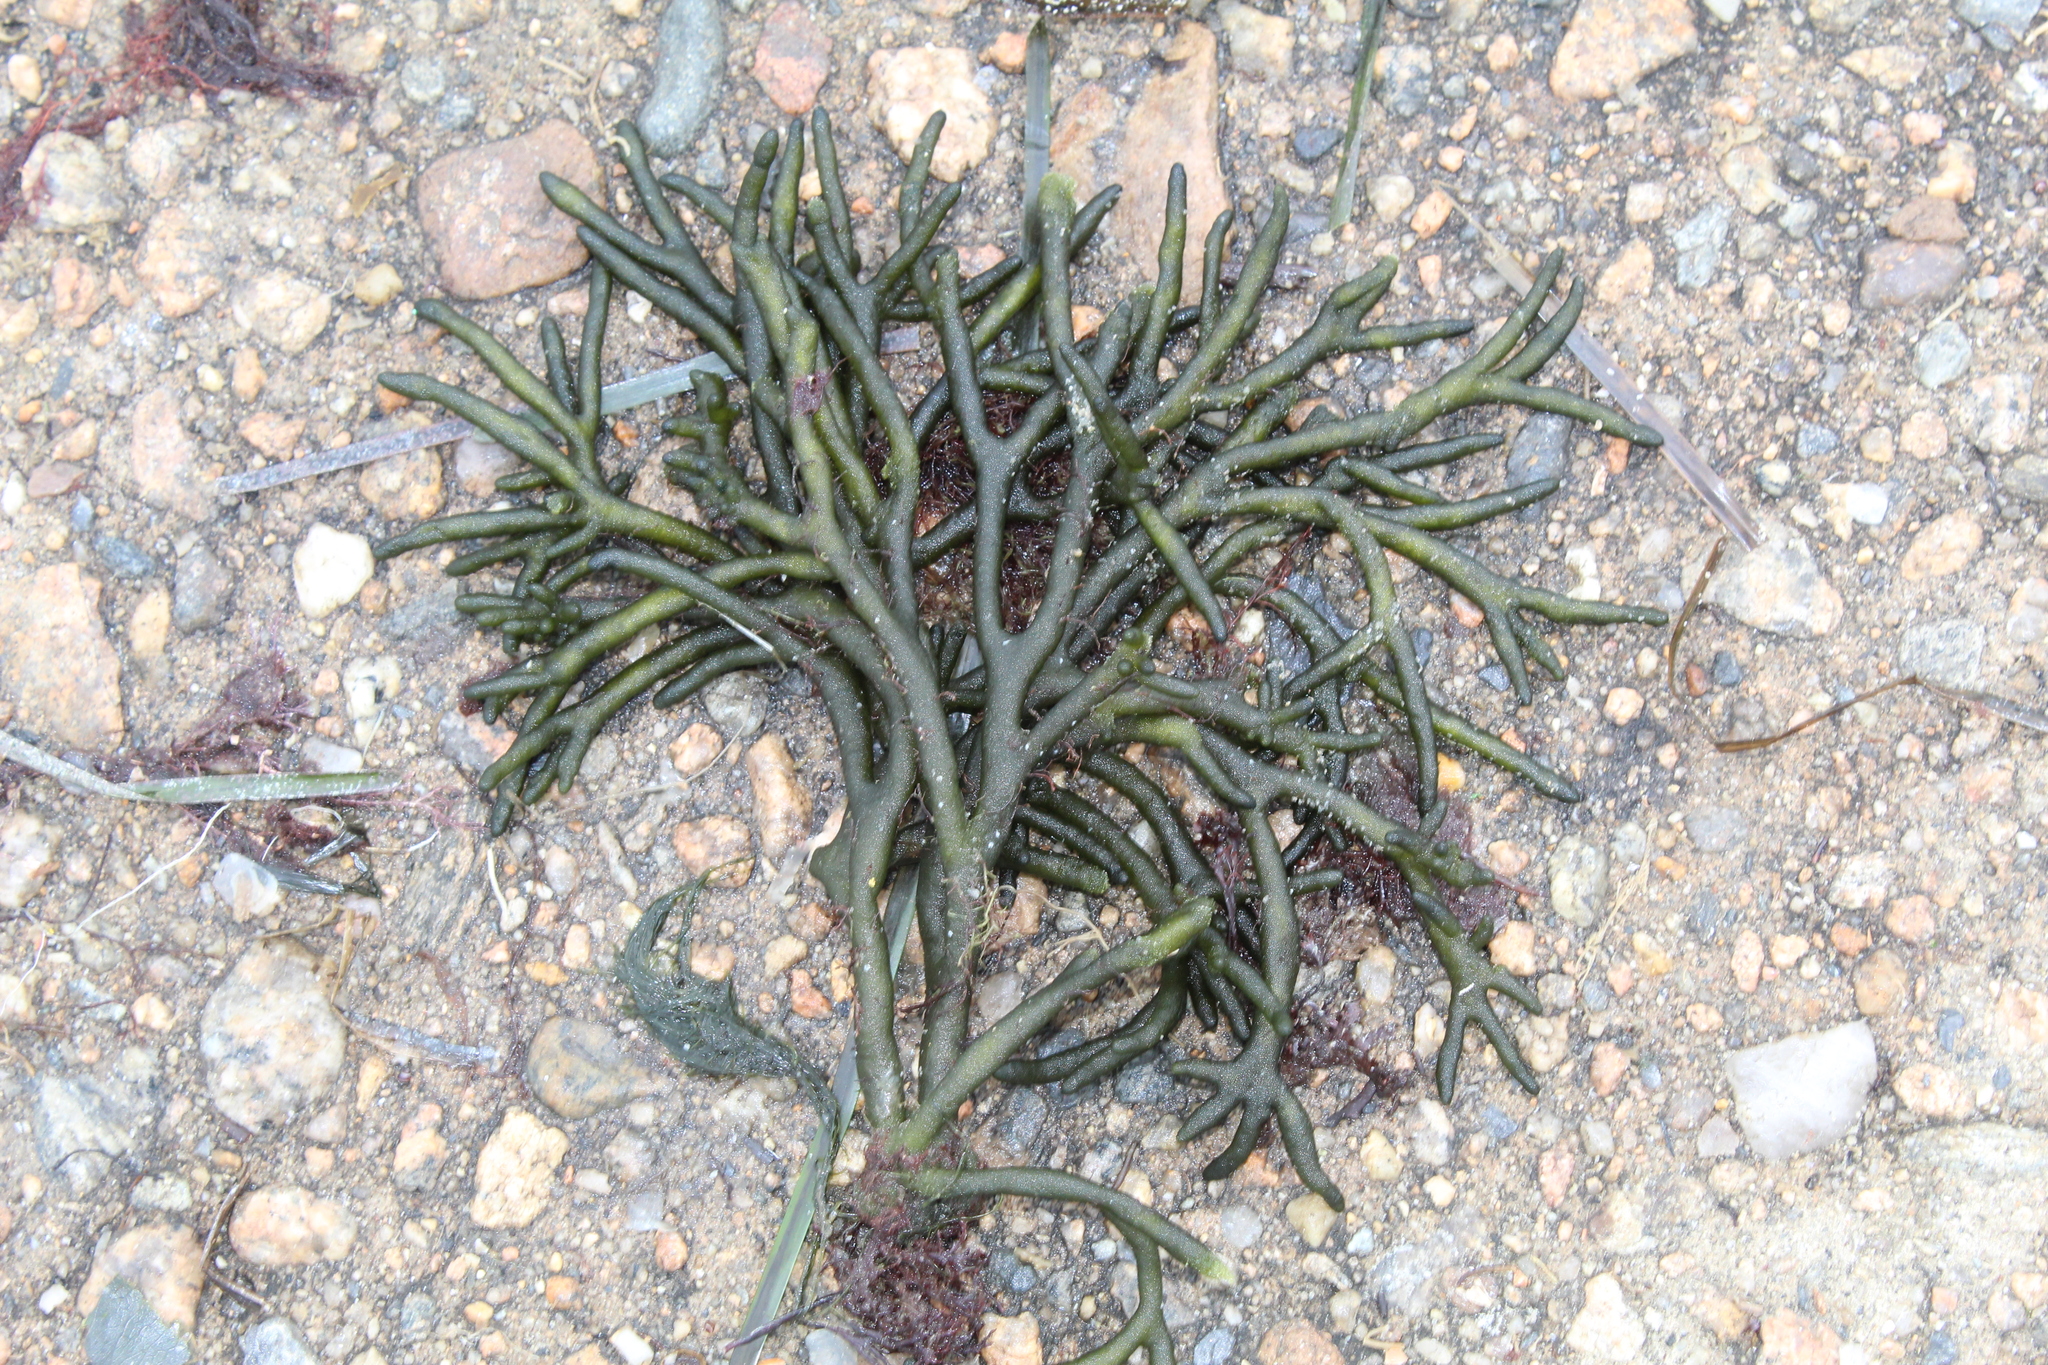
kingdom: Plantae
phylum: Chlorophyta
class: Ulvophyceae
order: Bryopsidales
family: Codiaceae
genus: Codium
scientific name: Codium fragile
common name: Dead man's fingers
